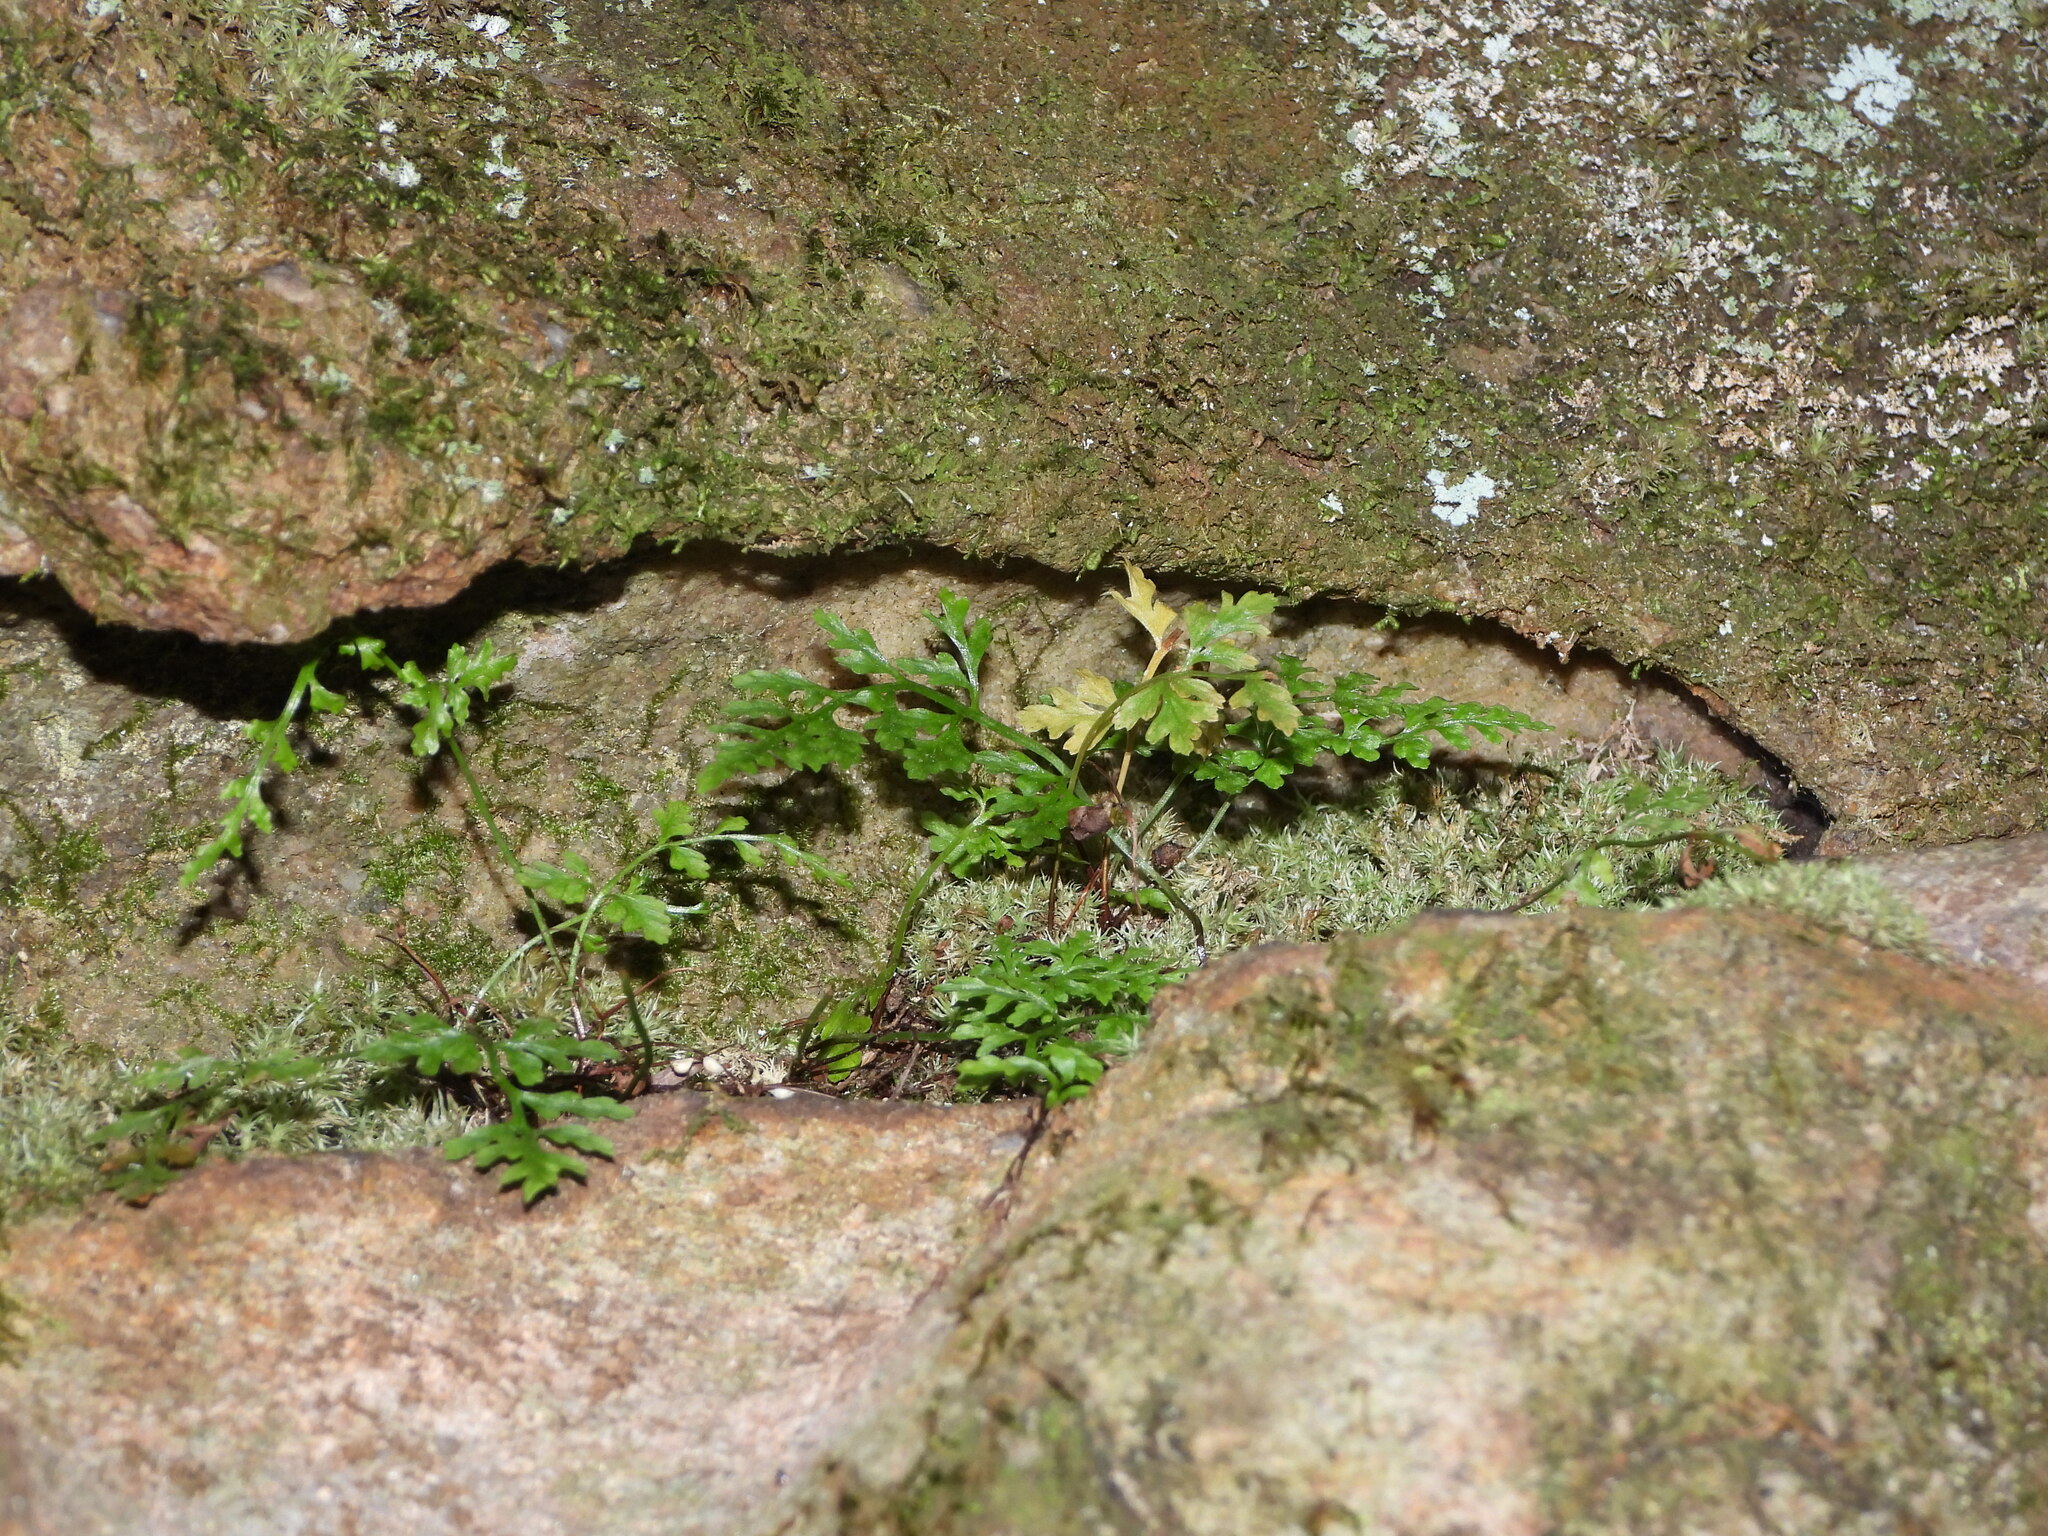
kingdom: Plantae
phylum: Tracheophyta
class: Polypodiopsida
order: Polypodiales
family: Aspleniaceae
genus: Asplenium
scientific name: Asplenium montanum
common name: Mountain spleenwort
